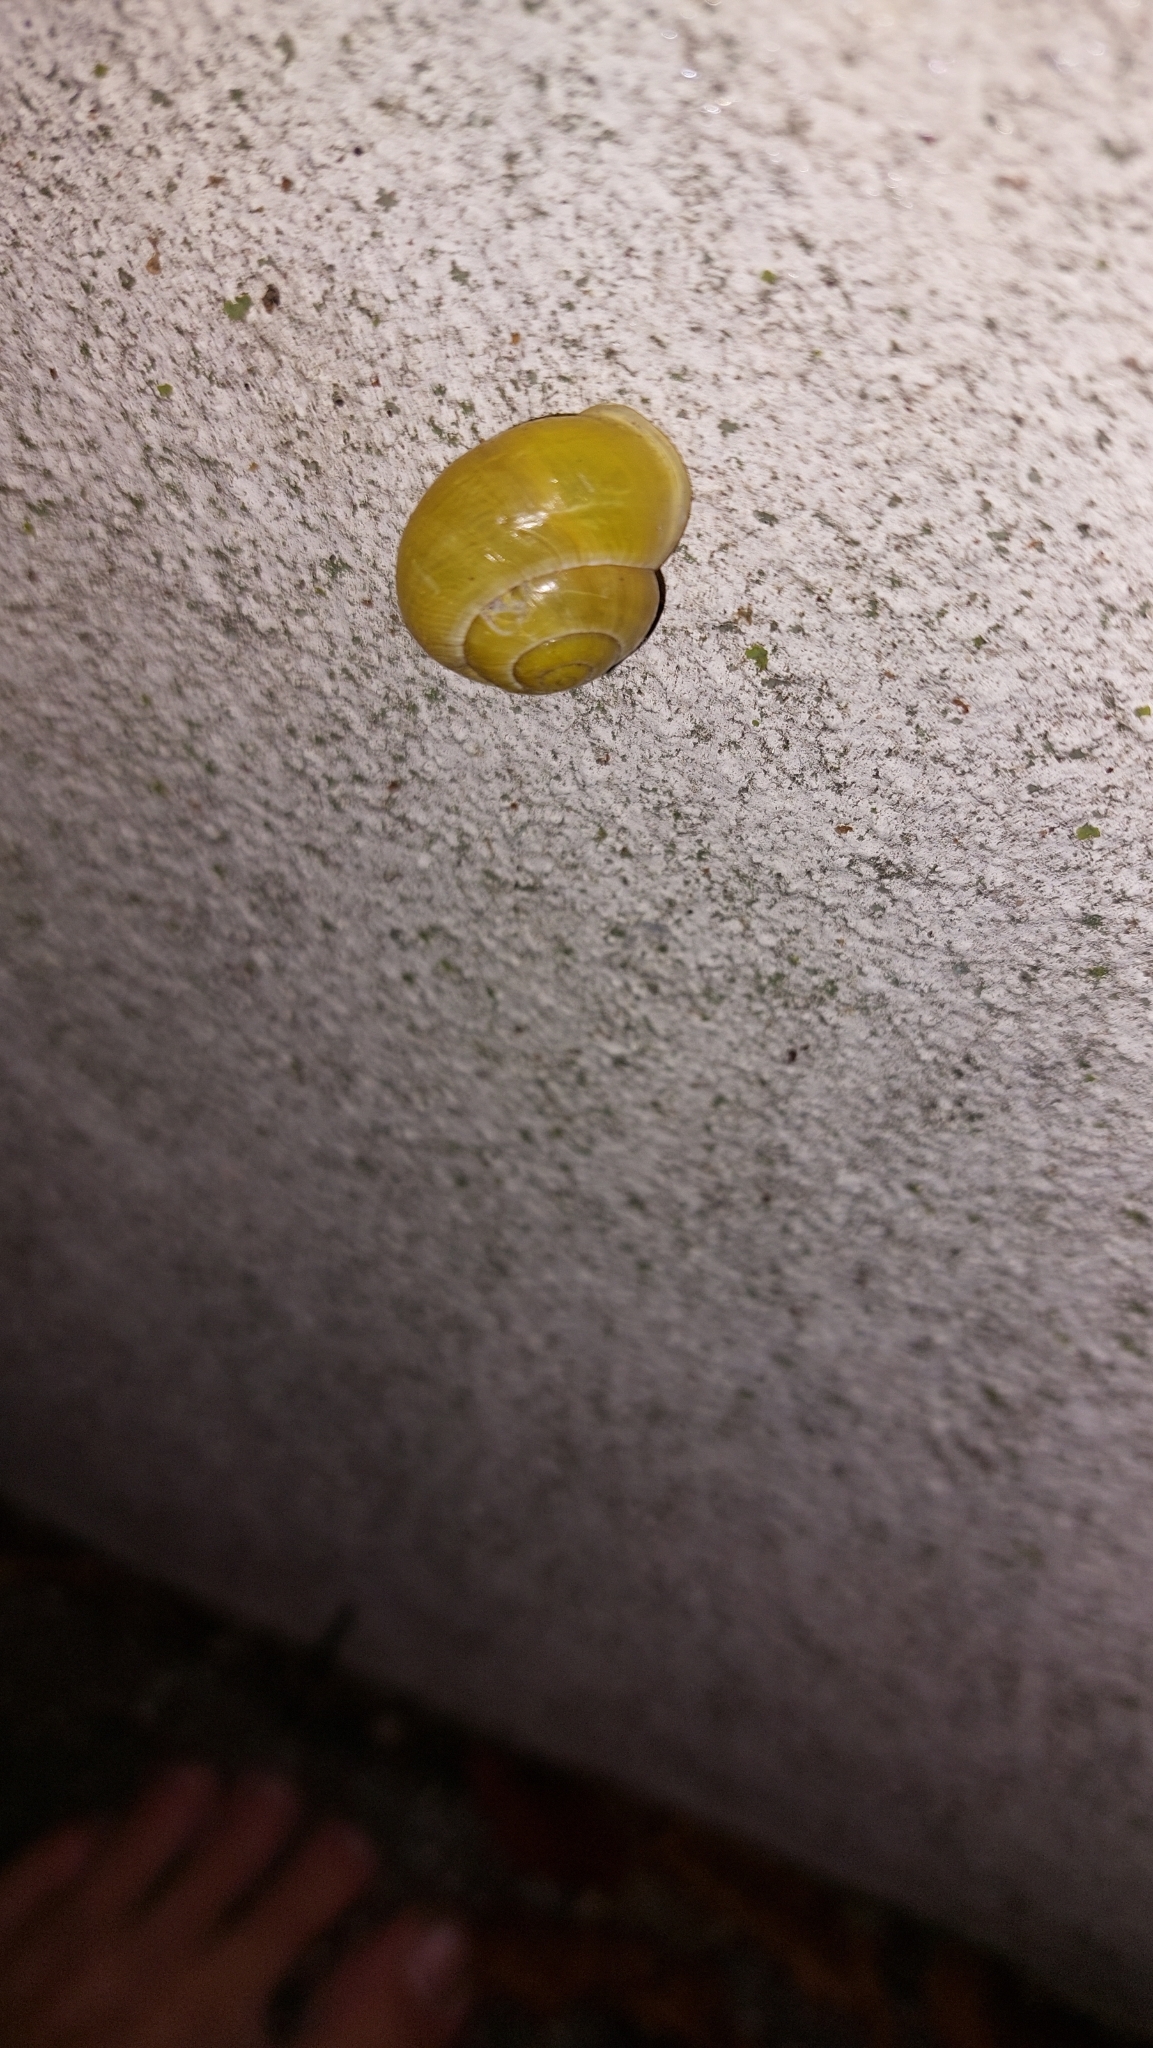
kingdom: Animalia
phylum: Mollusca
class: Gastropoda
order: Stylommatophora
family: Helicidae
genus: Cepaea
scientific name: Cepaea hortensis
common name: White-lip gardensnail
